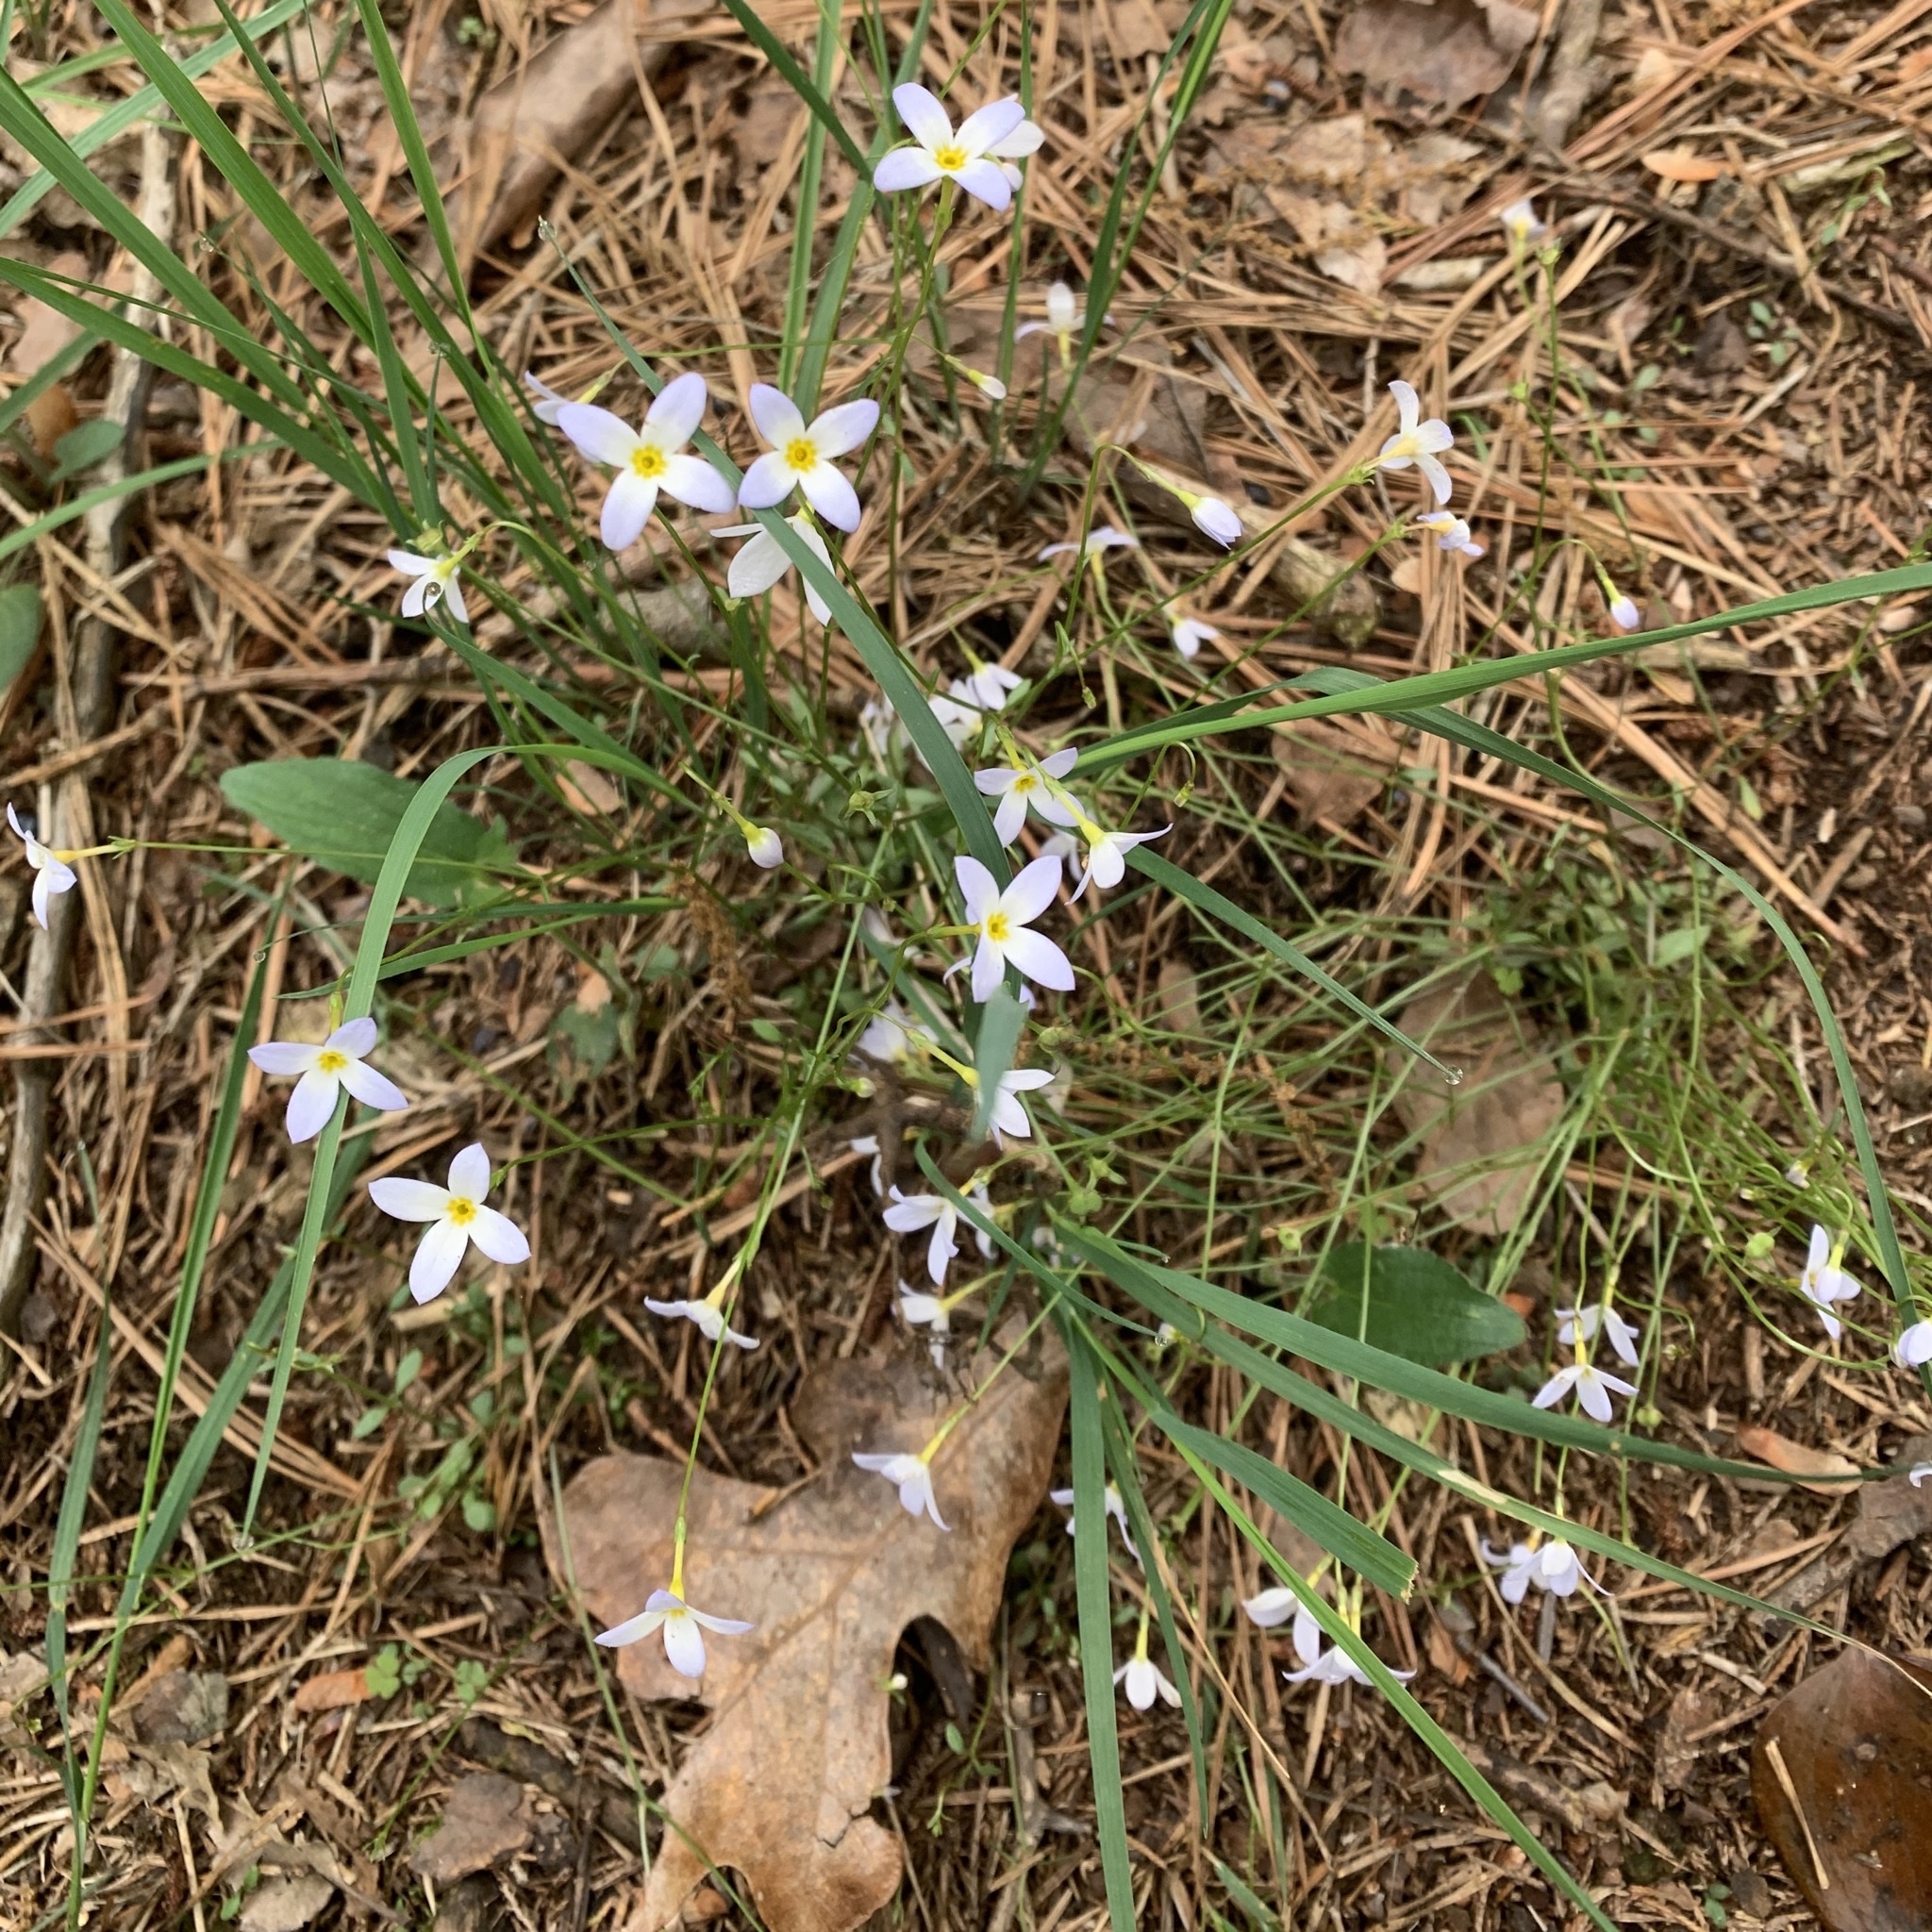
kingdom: Plantae
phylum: Tracheophyta
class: Magnoliopsida
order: Gentianales
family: Rubiaceae
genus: Houstonia
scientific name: Houstonia caerulea
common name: Bluets
